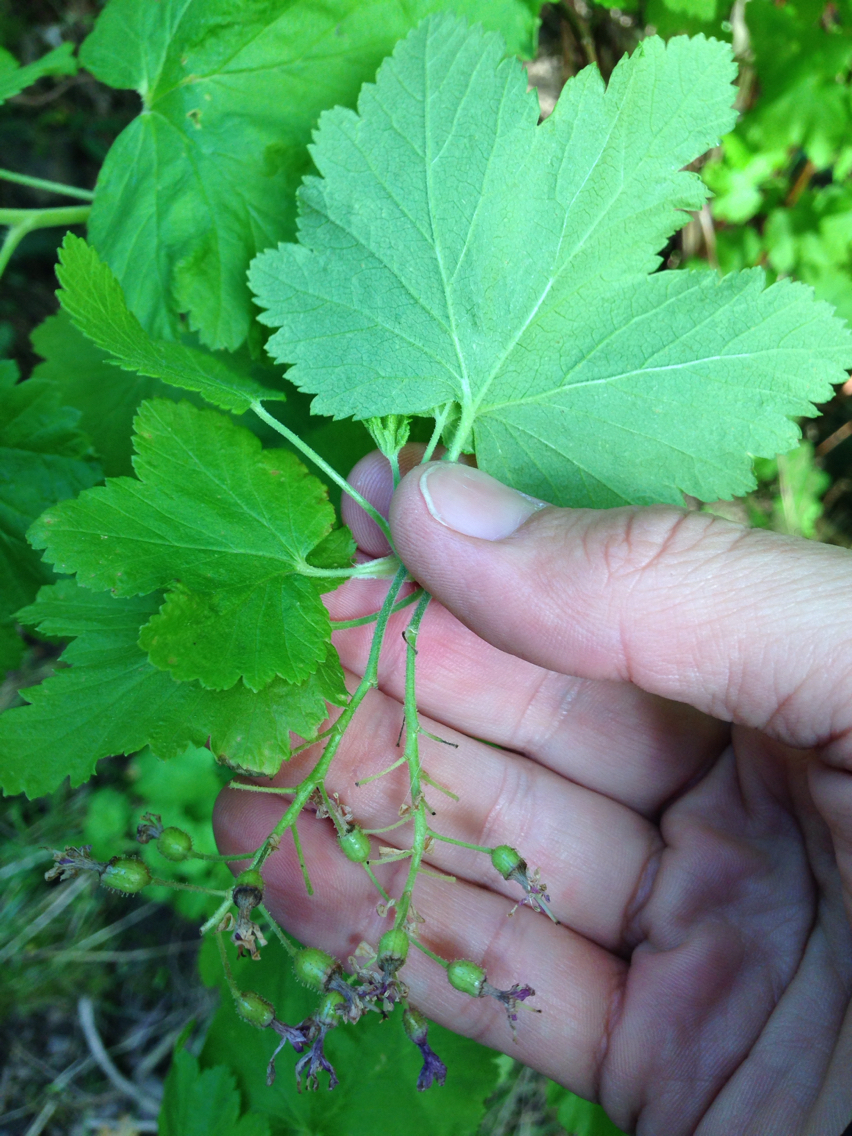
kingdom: Plantae
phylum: Tracheophyta
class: Magnoliopsida
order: Saxifragales
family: Grossulariaceae
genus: Ribes
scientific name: Ribes sanguineum
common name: Flowering currant
